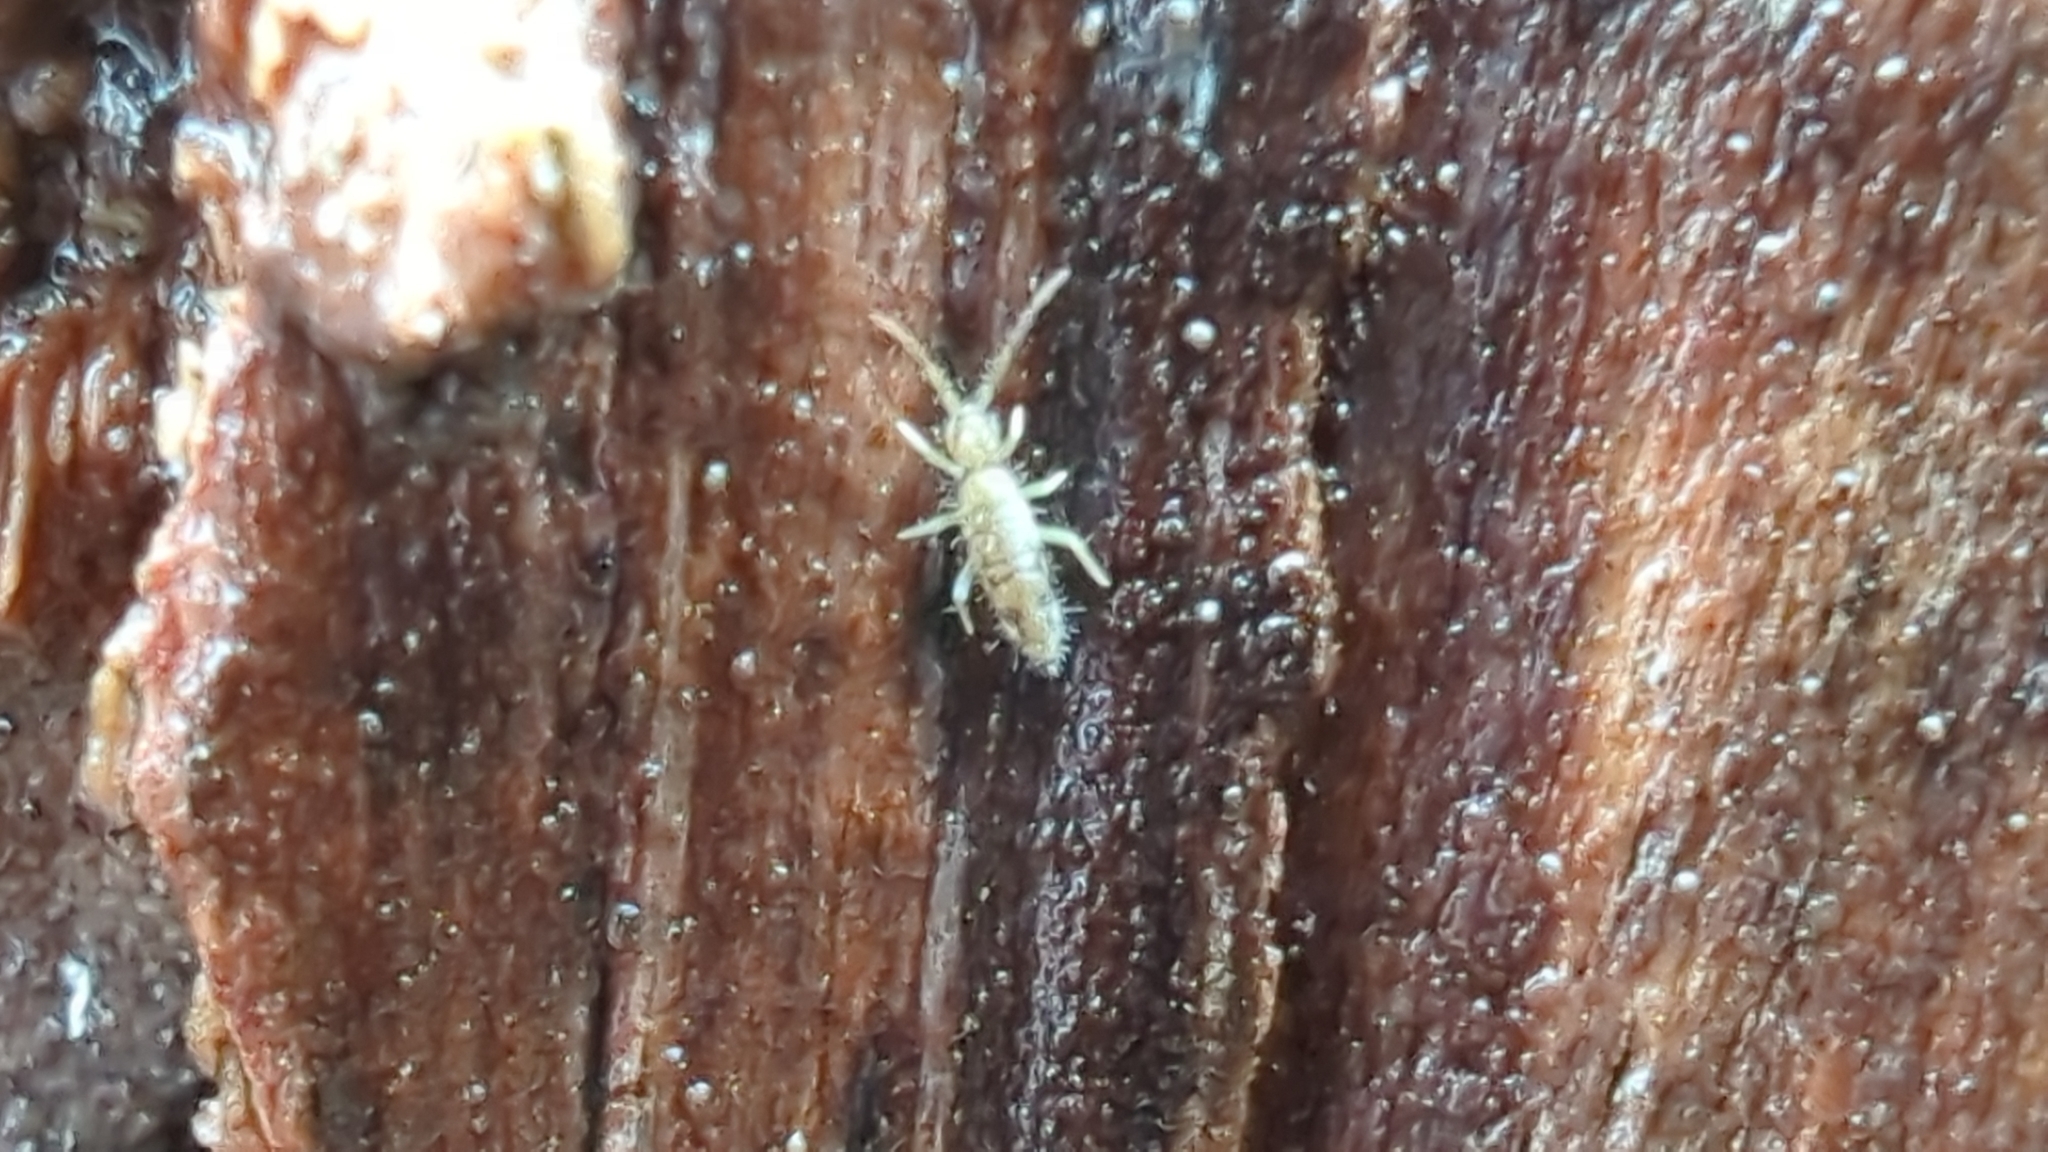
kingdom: Animalia
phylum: Arthropoda
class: Collembola
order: Entomobryomorpha
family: Entomobryidae
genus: Entomobrya
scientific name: Entomobrya katzi
